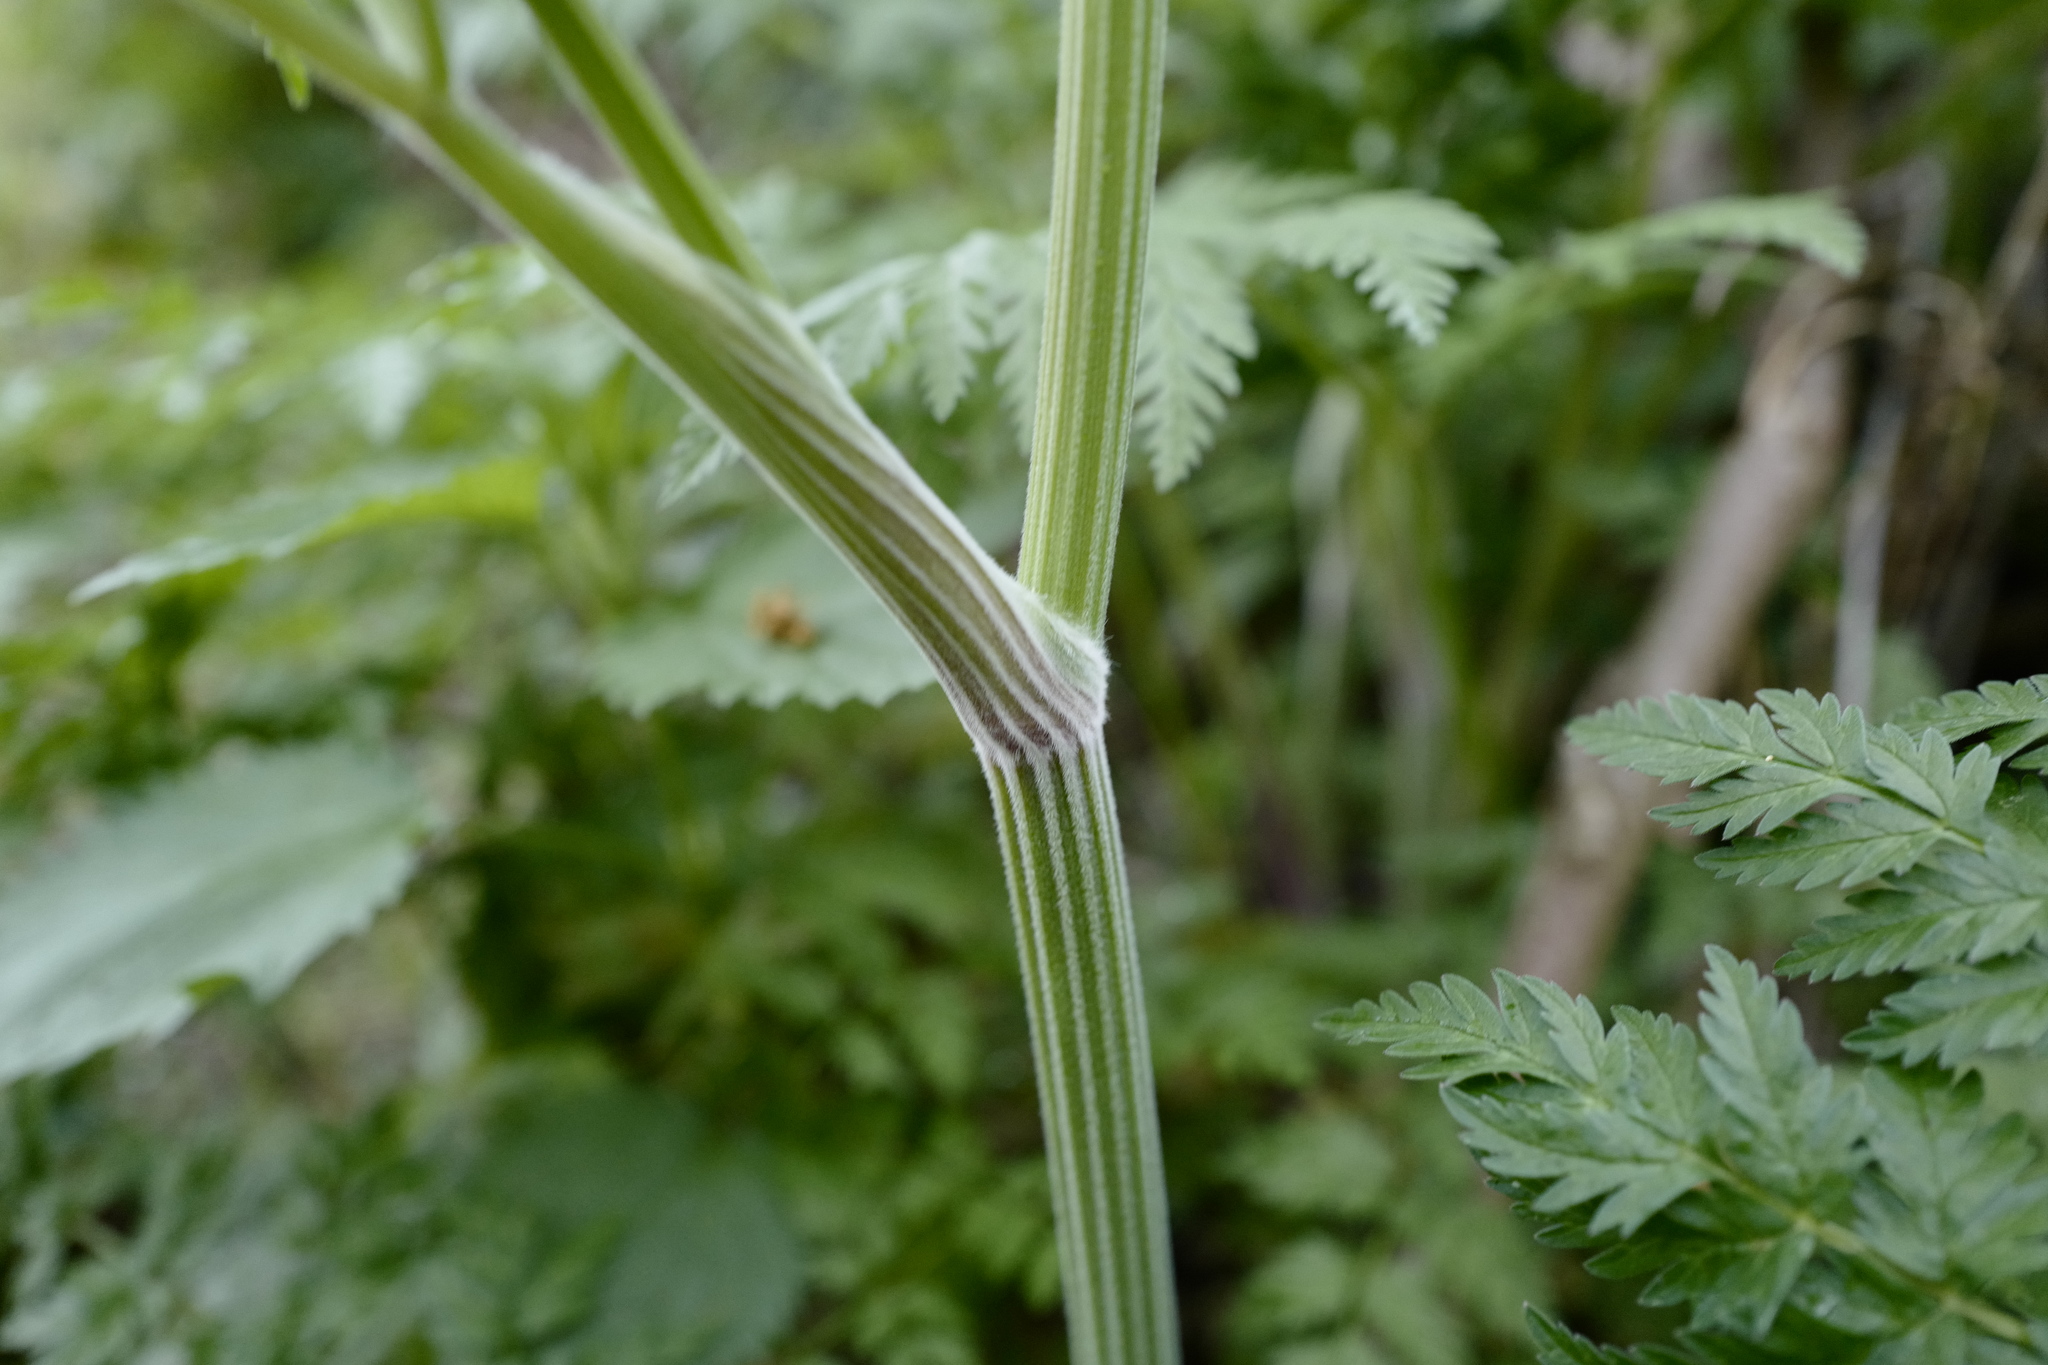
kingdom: Plantae
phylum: Tracheophyta
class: Magnoliopsida
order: Apiales
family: Apiaceae
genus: Anthriscus
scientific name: Anthriscus sylvestris
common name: Cow parsley
